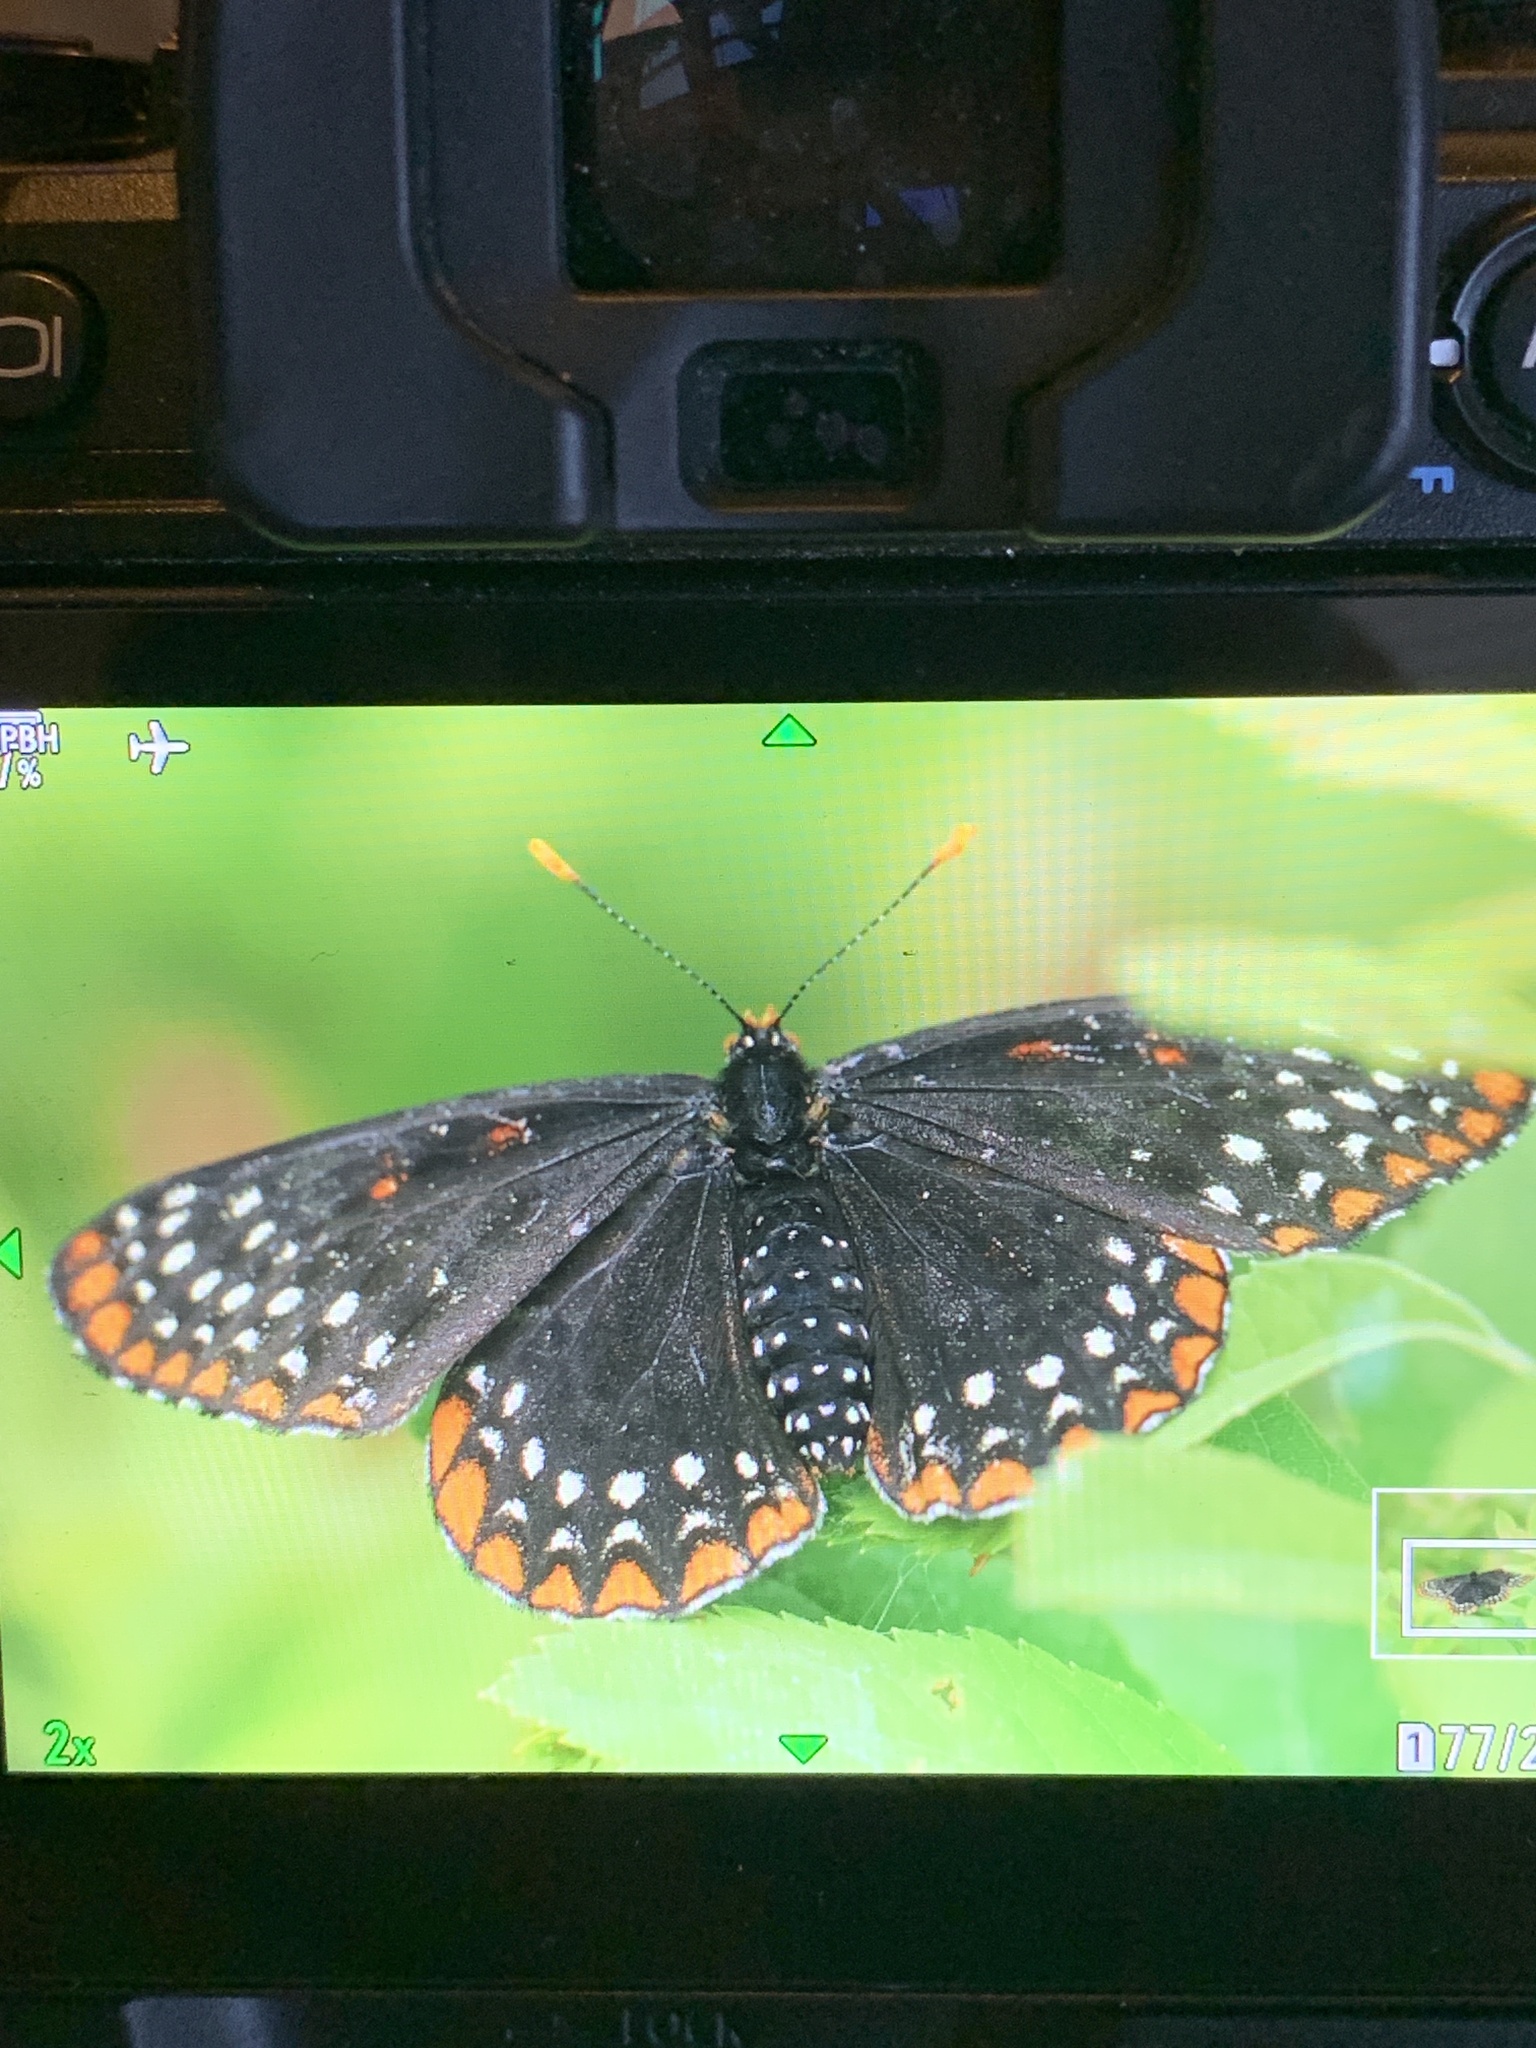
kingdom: Animalia
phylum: Arthropoda
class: Insecta
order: Lepidoptera
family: Nymphalidae
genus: Euphydryas
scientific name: Euphydryas phaeton
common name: Baltimore checkerspot
